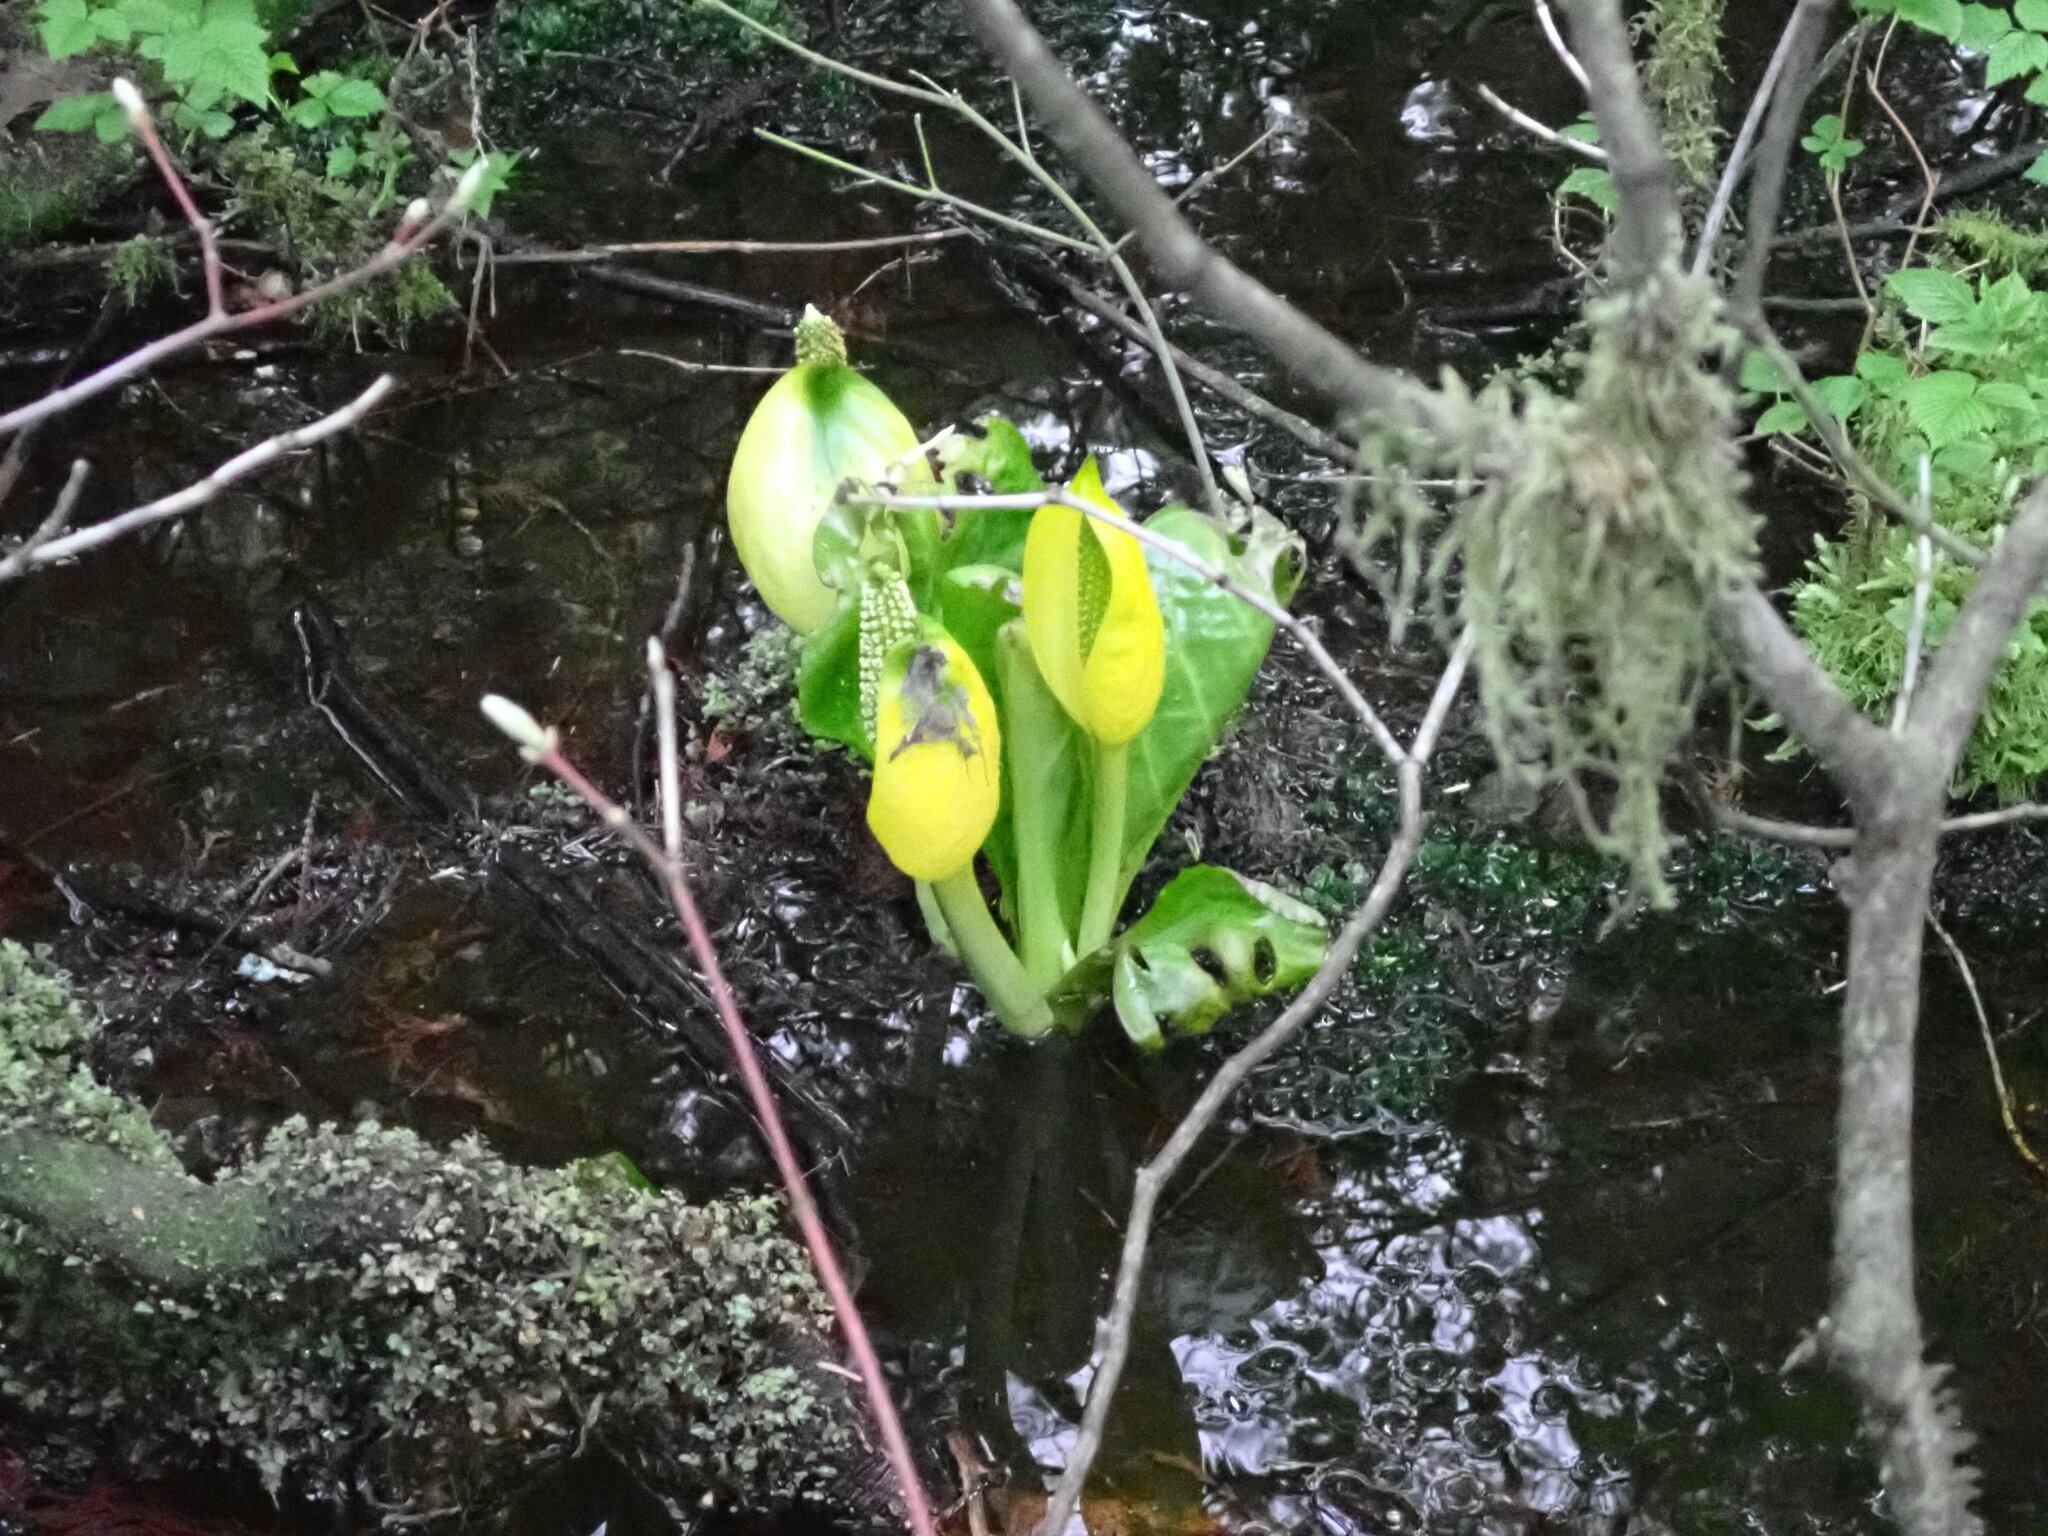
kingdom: Plantae
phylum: Tracheophyta
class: Liliopsida
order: Alismatales
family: Araceae
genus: Lysichiton
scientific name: Lysichiton americanus
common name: American skunk cabbage
